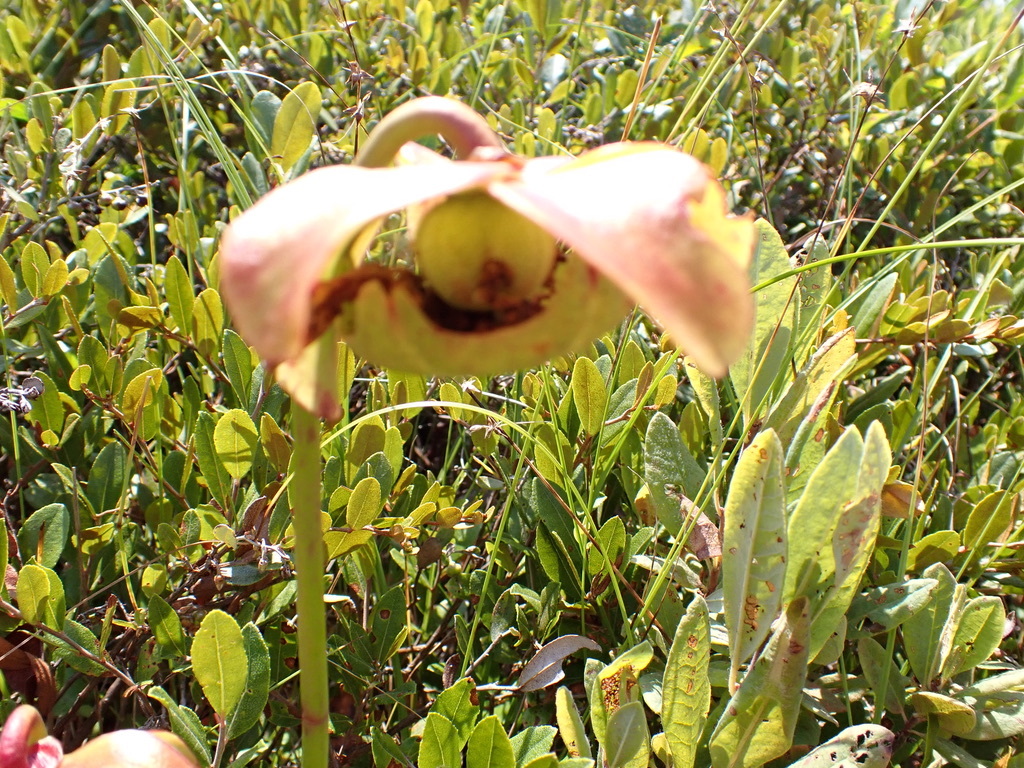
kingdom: Plantae
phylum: Tracheophyta
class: Magnoliopsida
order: Ericales
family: Sarraceniaceae
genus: Sarracenia
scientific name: Sarracenia purpurea
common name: Pitcherplant
